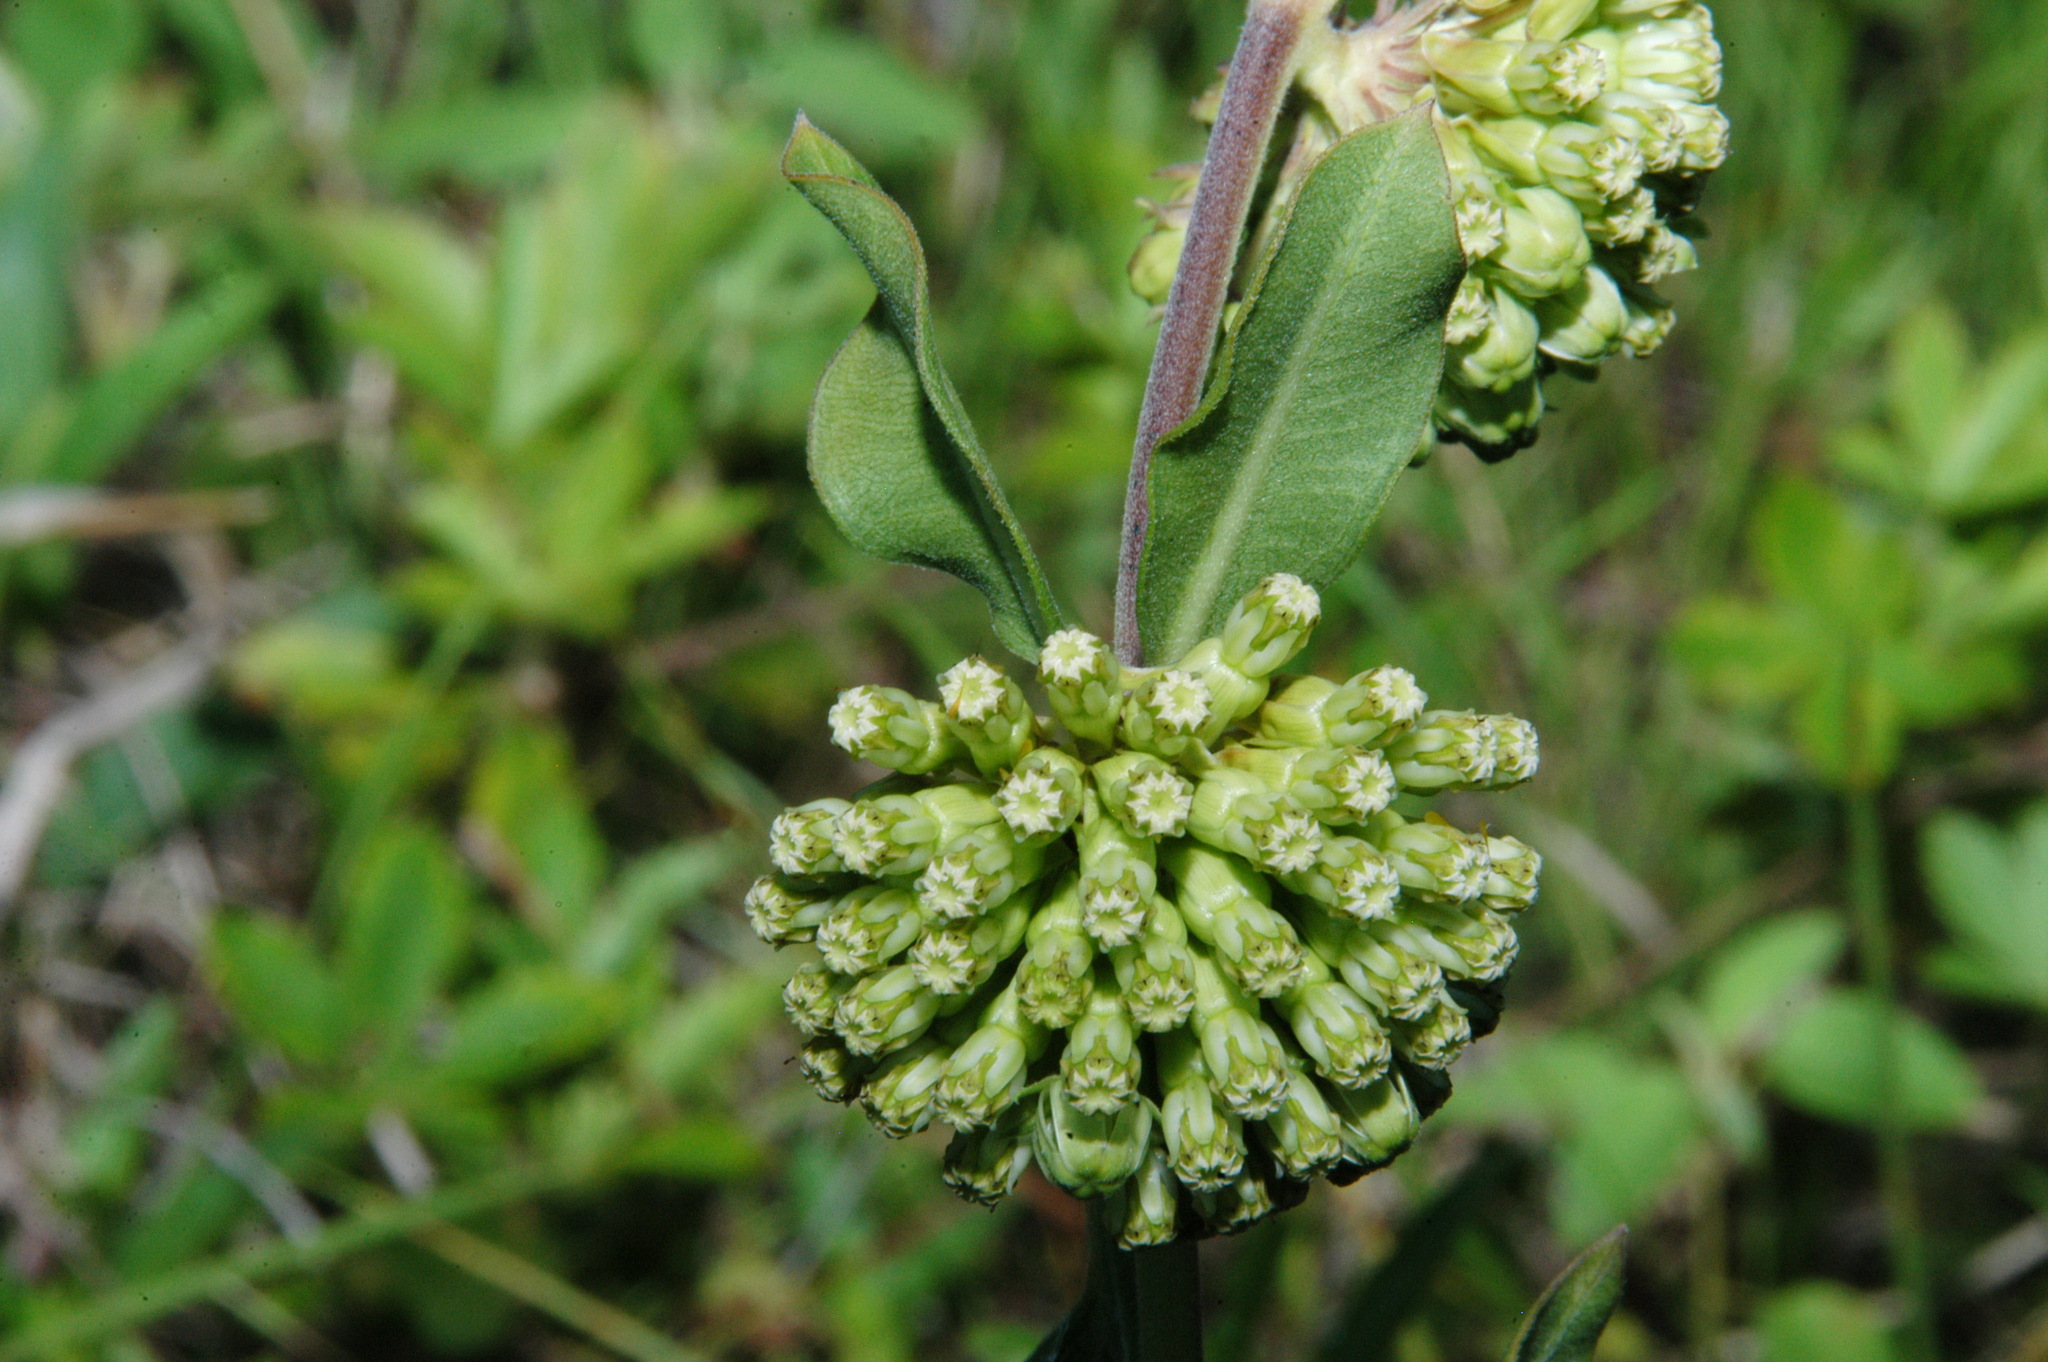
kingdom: Plantae
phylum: Tracheophyta
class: Magnoliopsida
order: Gentianales
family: Apocynaceae
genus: Asclepias
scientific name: Asclepias viridiflora
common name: Green comet milkweed
